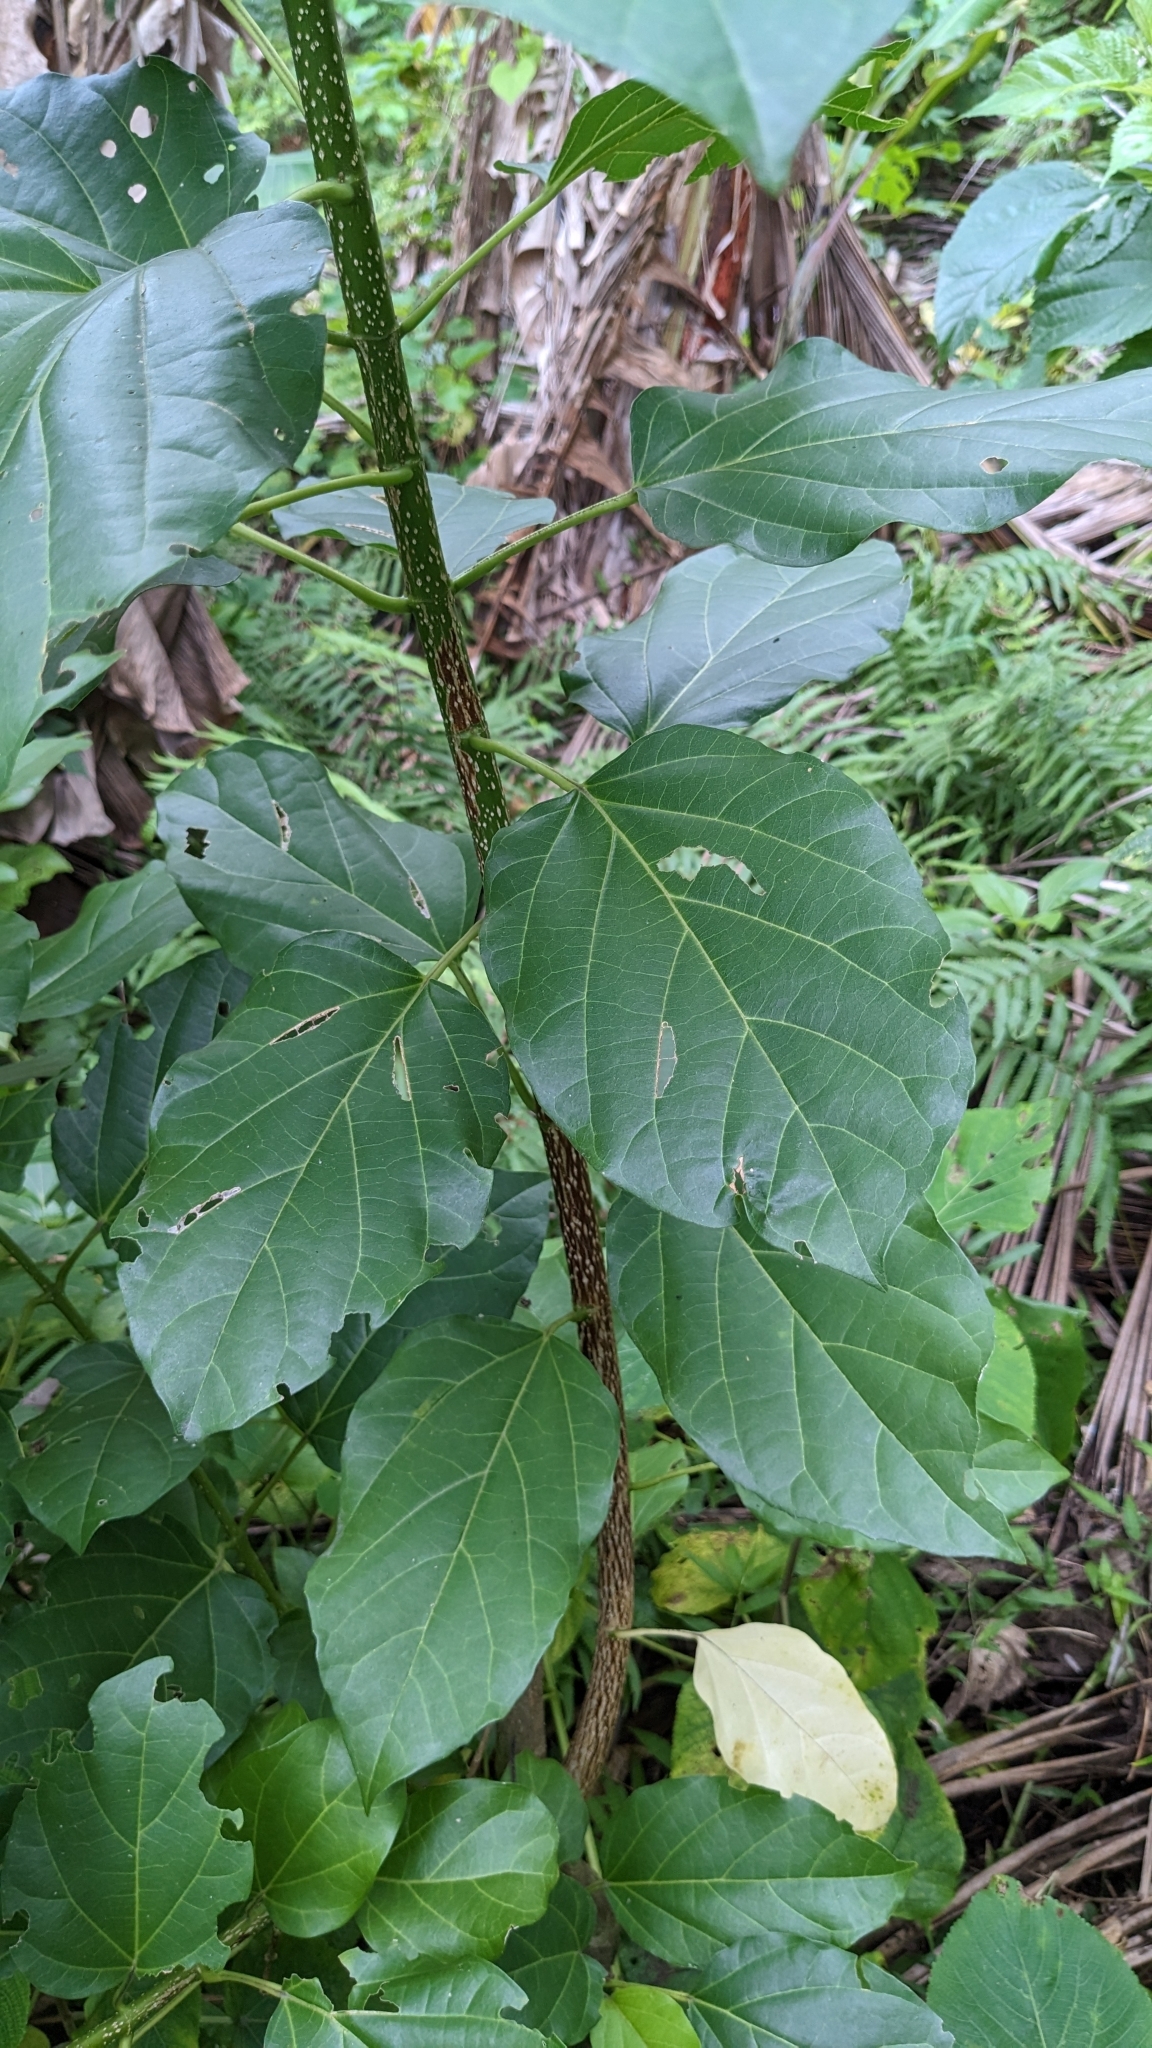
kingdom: Plantae
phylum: Tracheophyta
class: Magnoliopsida
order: Lamiales
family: Lamiaceae
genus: Premna
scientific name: Premna serratifolia
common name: Bastard guelder
